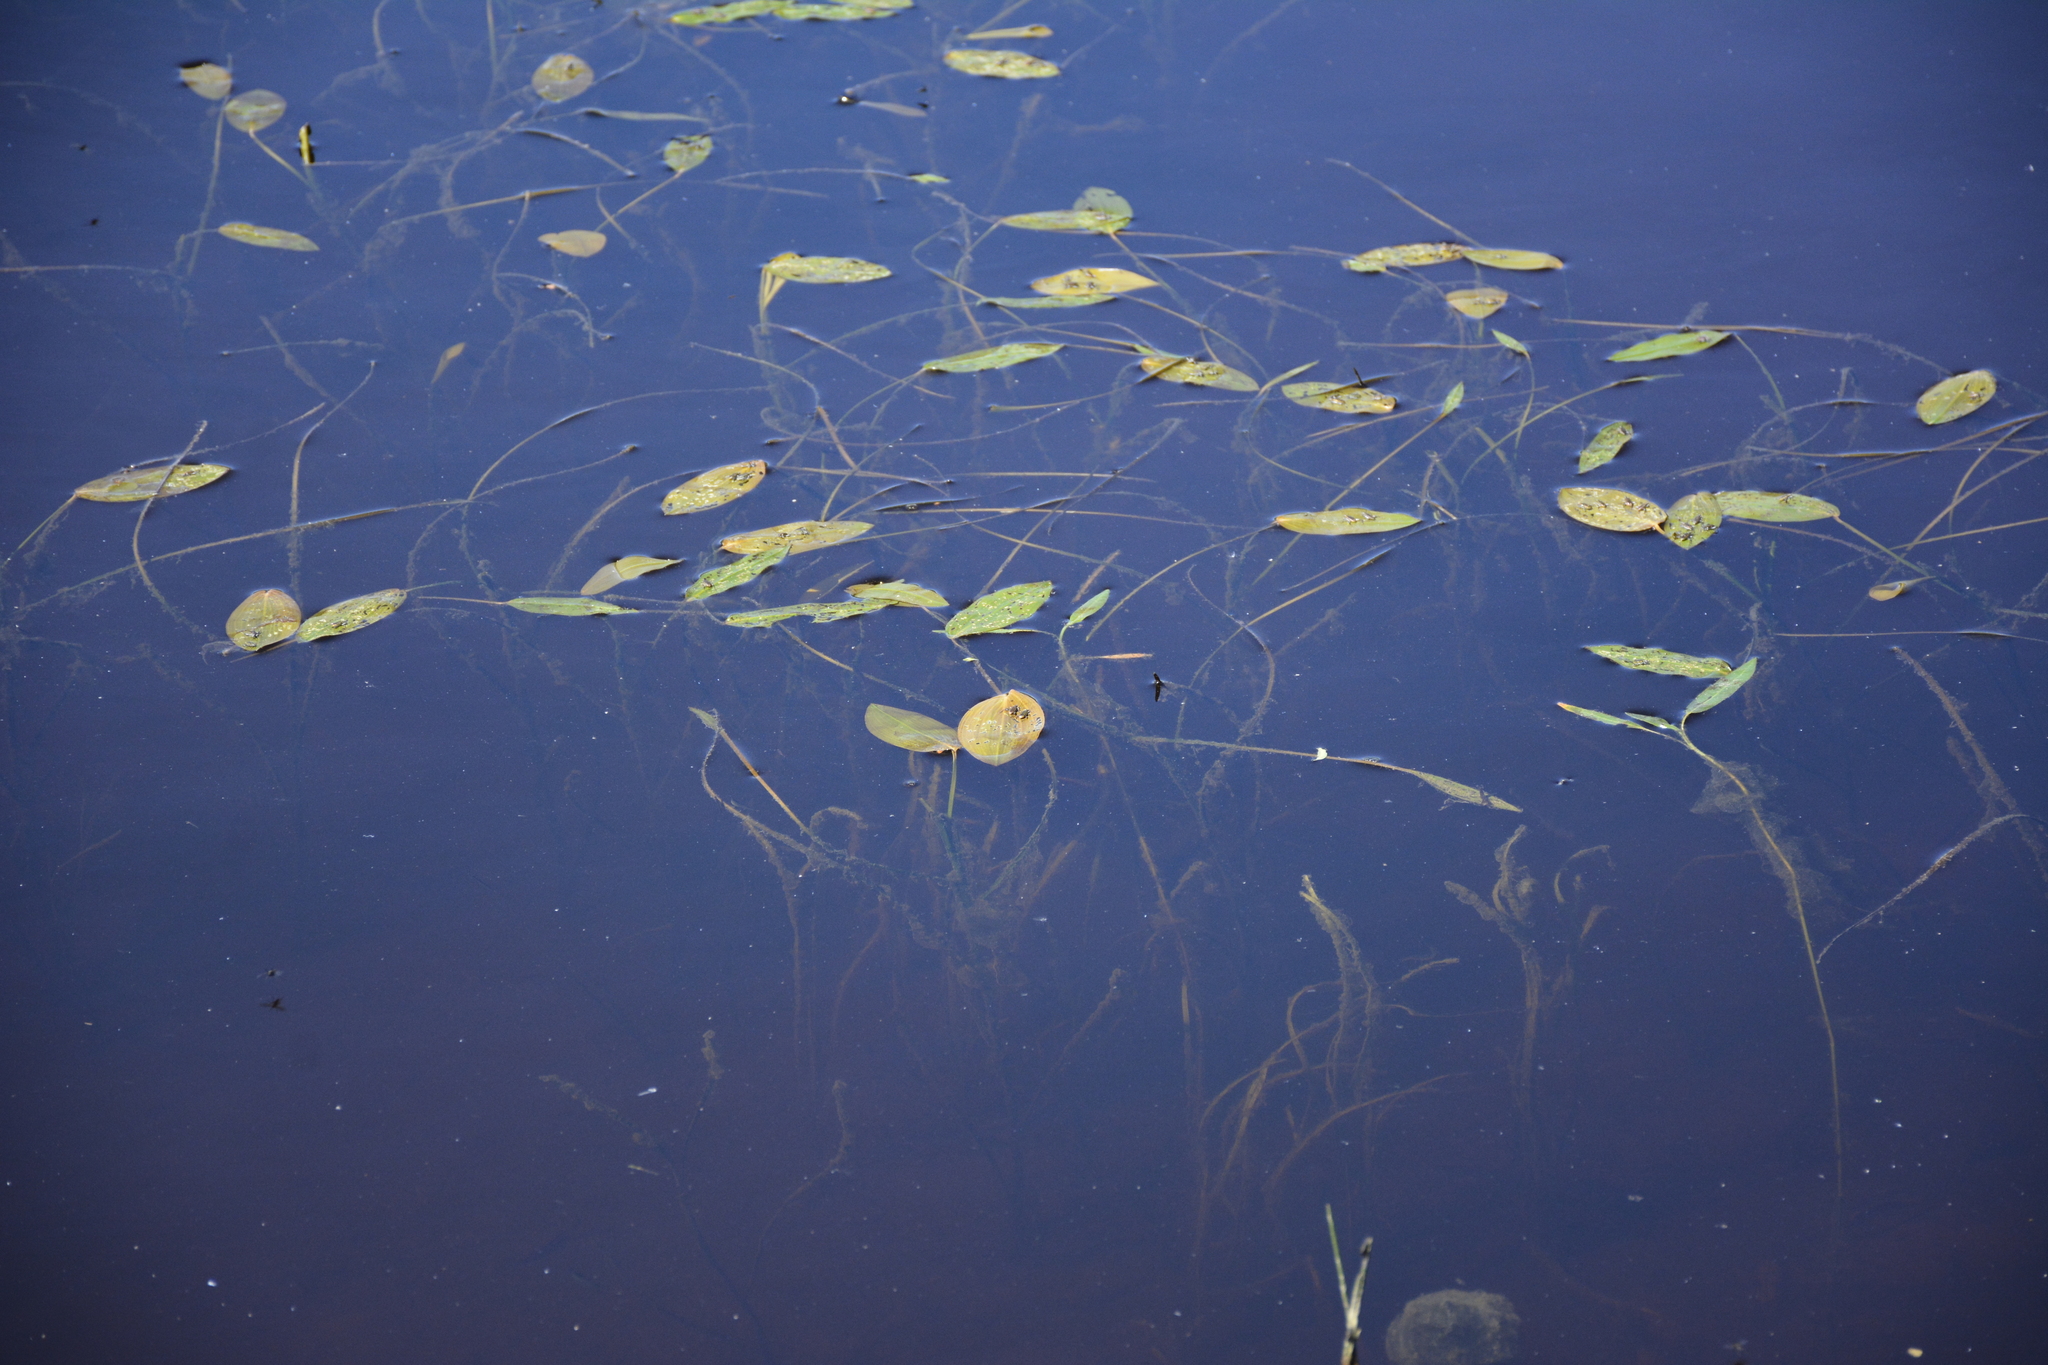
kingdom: Plantae
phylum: Tracheophyta
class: Liliopsida
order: Alismatales
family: Potamogetonaceae
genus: Potamogeton
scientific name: Potamogeton natans
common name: Broad-leaved pondweed
